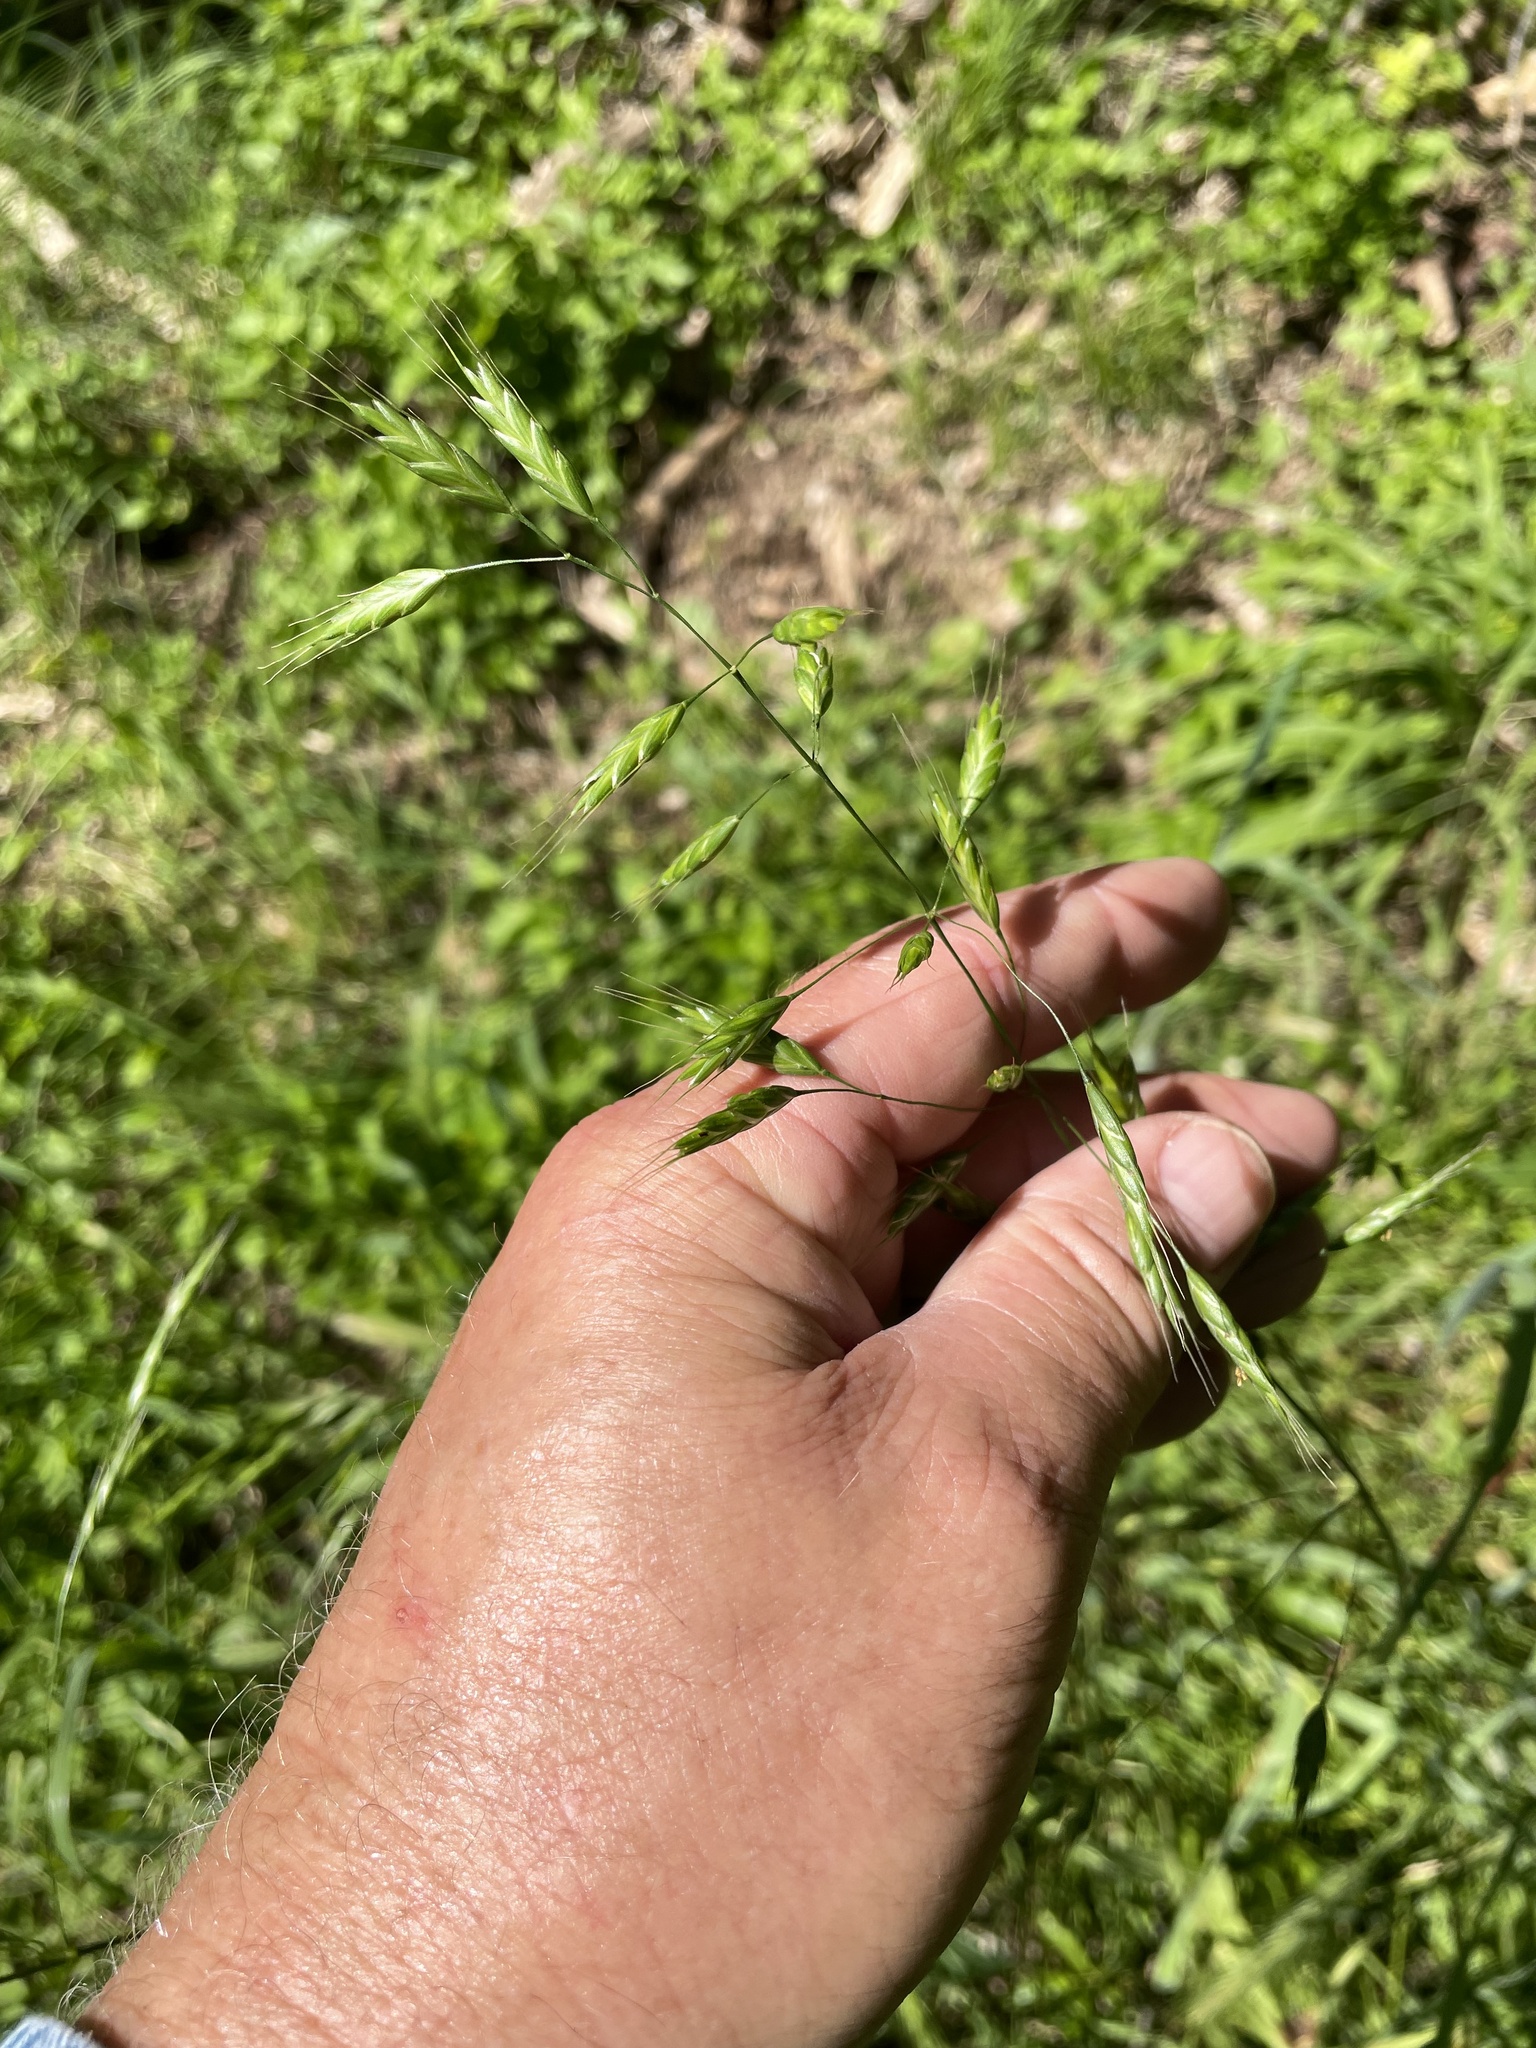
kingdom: Plantae
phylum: Tracheophyta
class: Liliopsida
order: Poales
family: Poaceae
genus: Bromus
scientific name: Bromus japonicus
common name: Japanese brome
